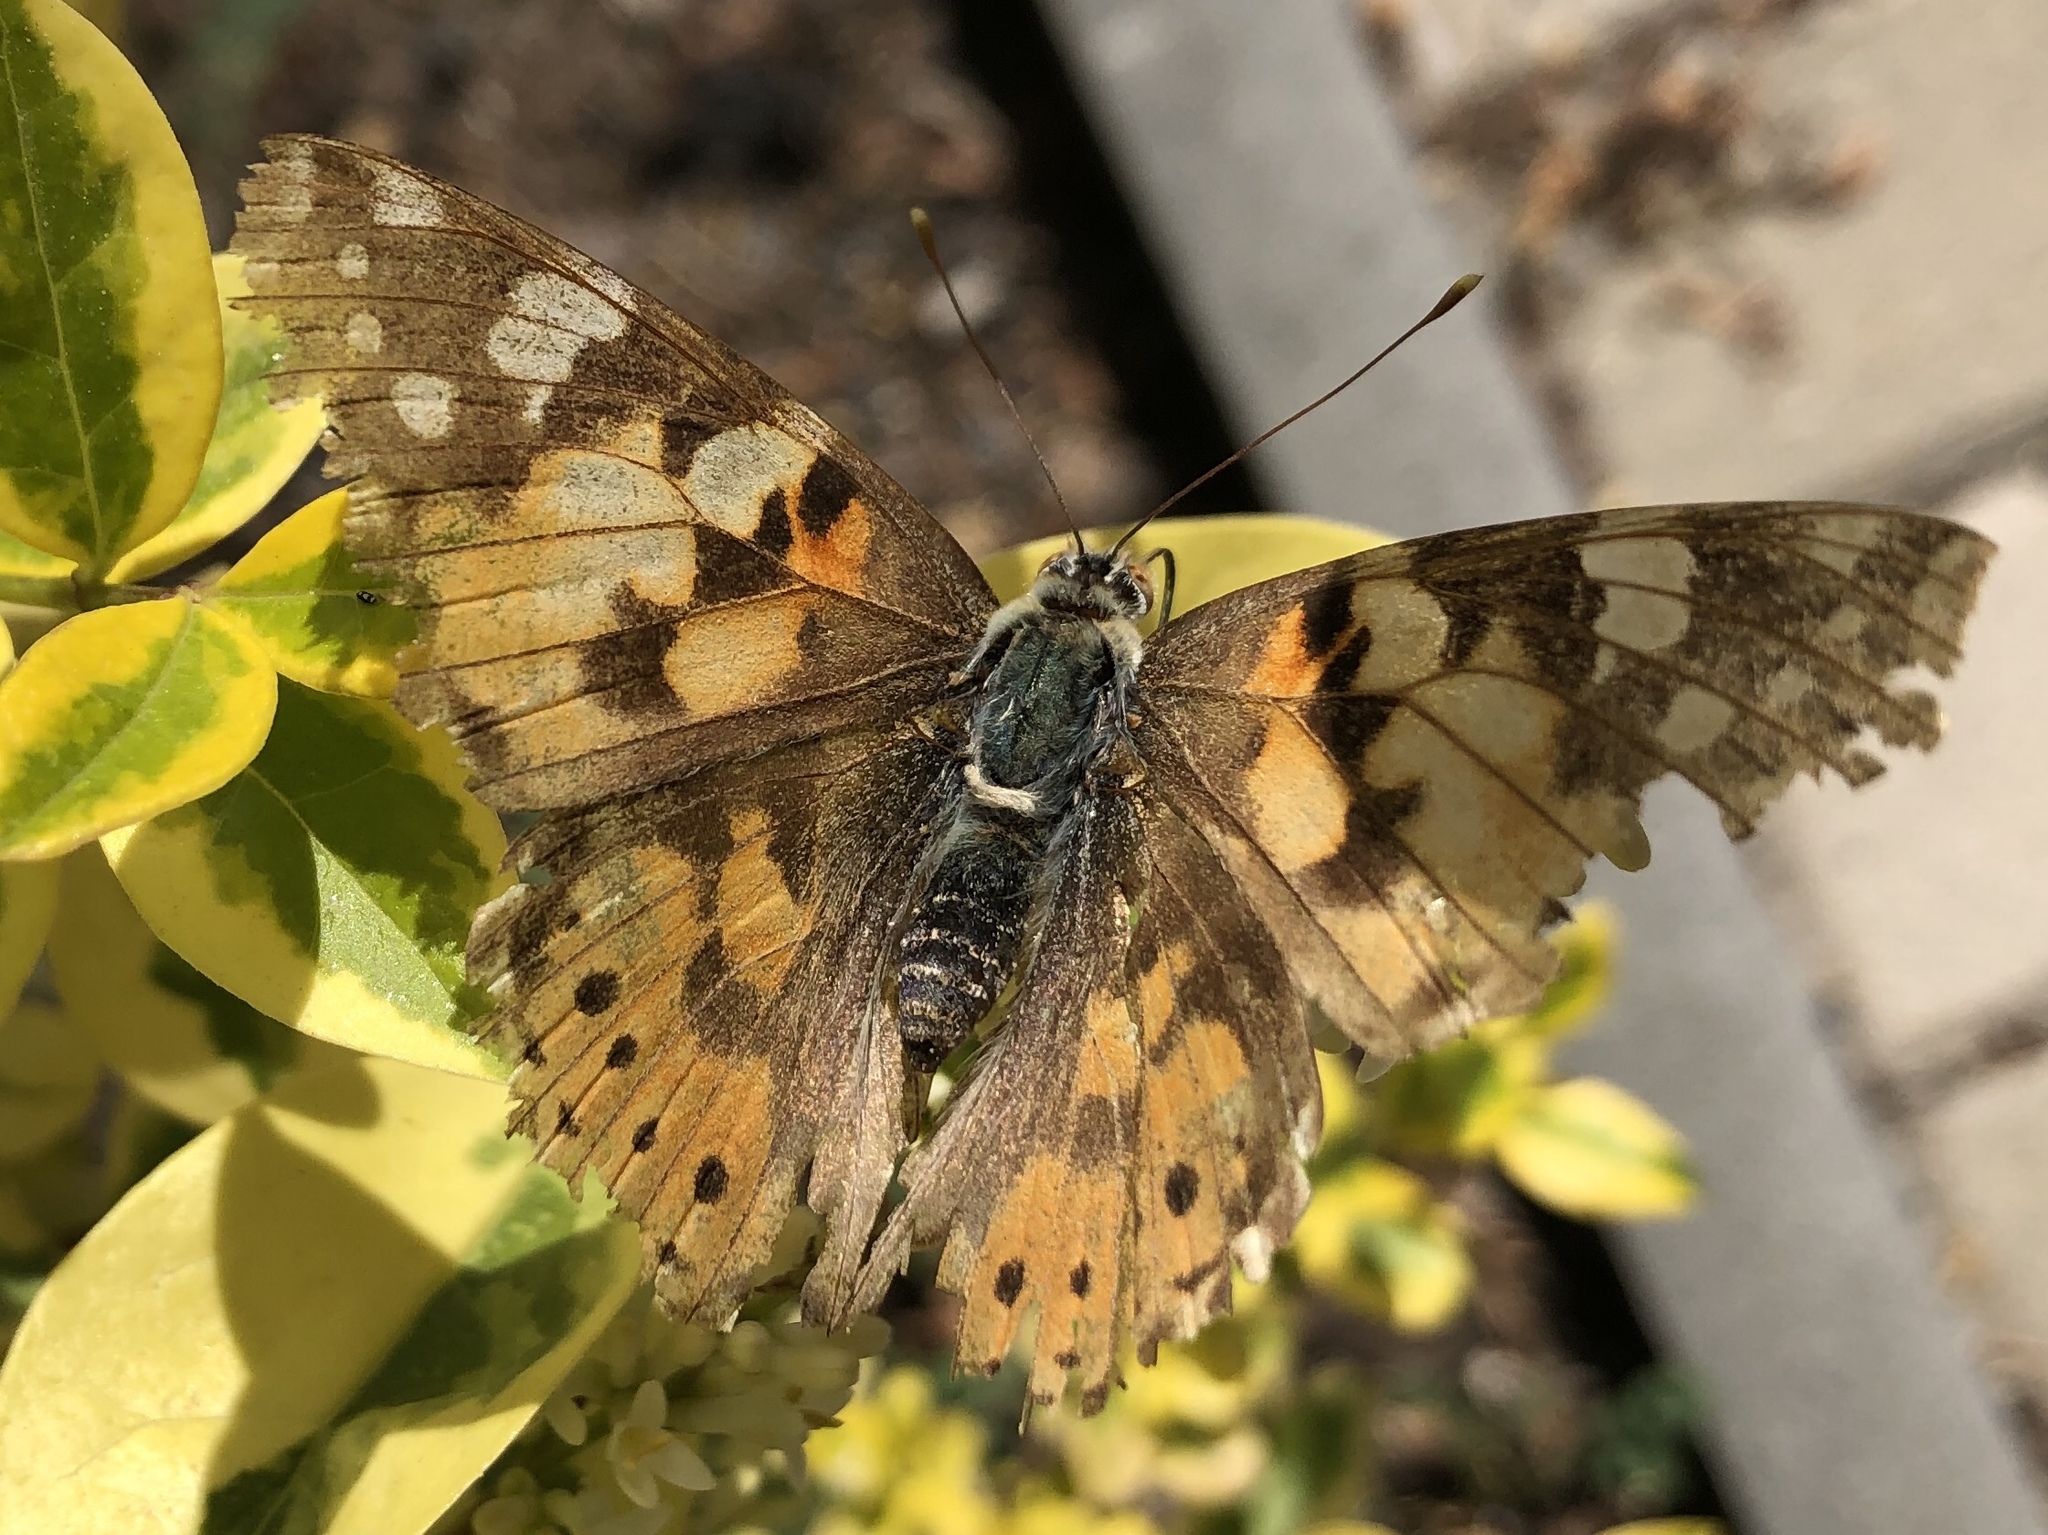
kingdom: Animalia
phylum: Arthropoda
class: Insecta
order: Lepidoptera
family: Nymphalidae
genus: Vanessa
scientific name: Vanessa cardui
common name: Painted lady
